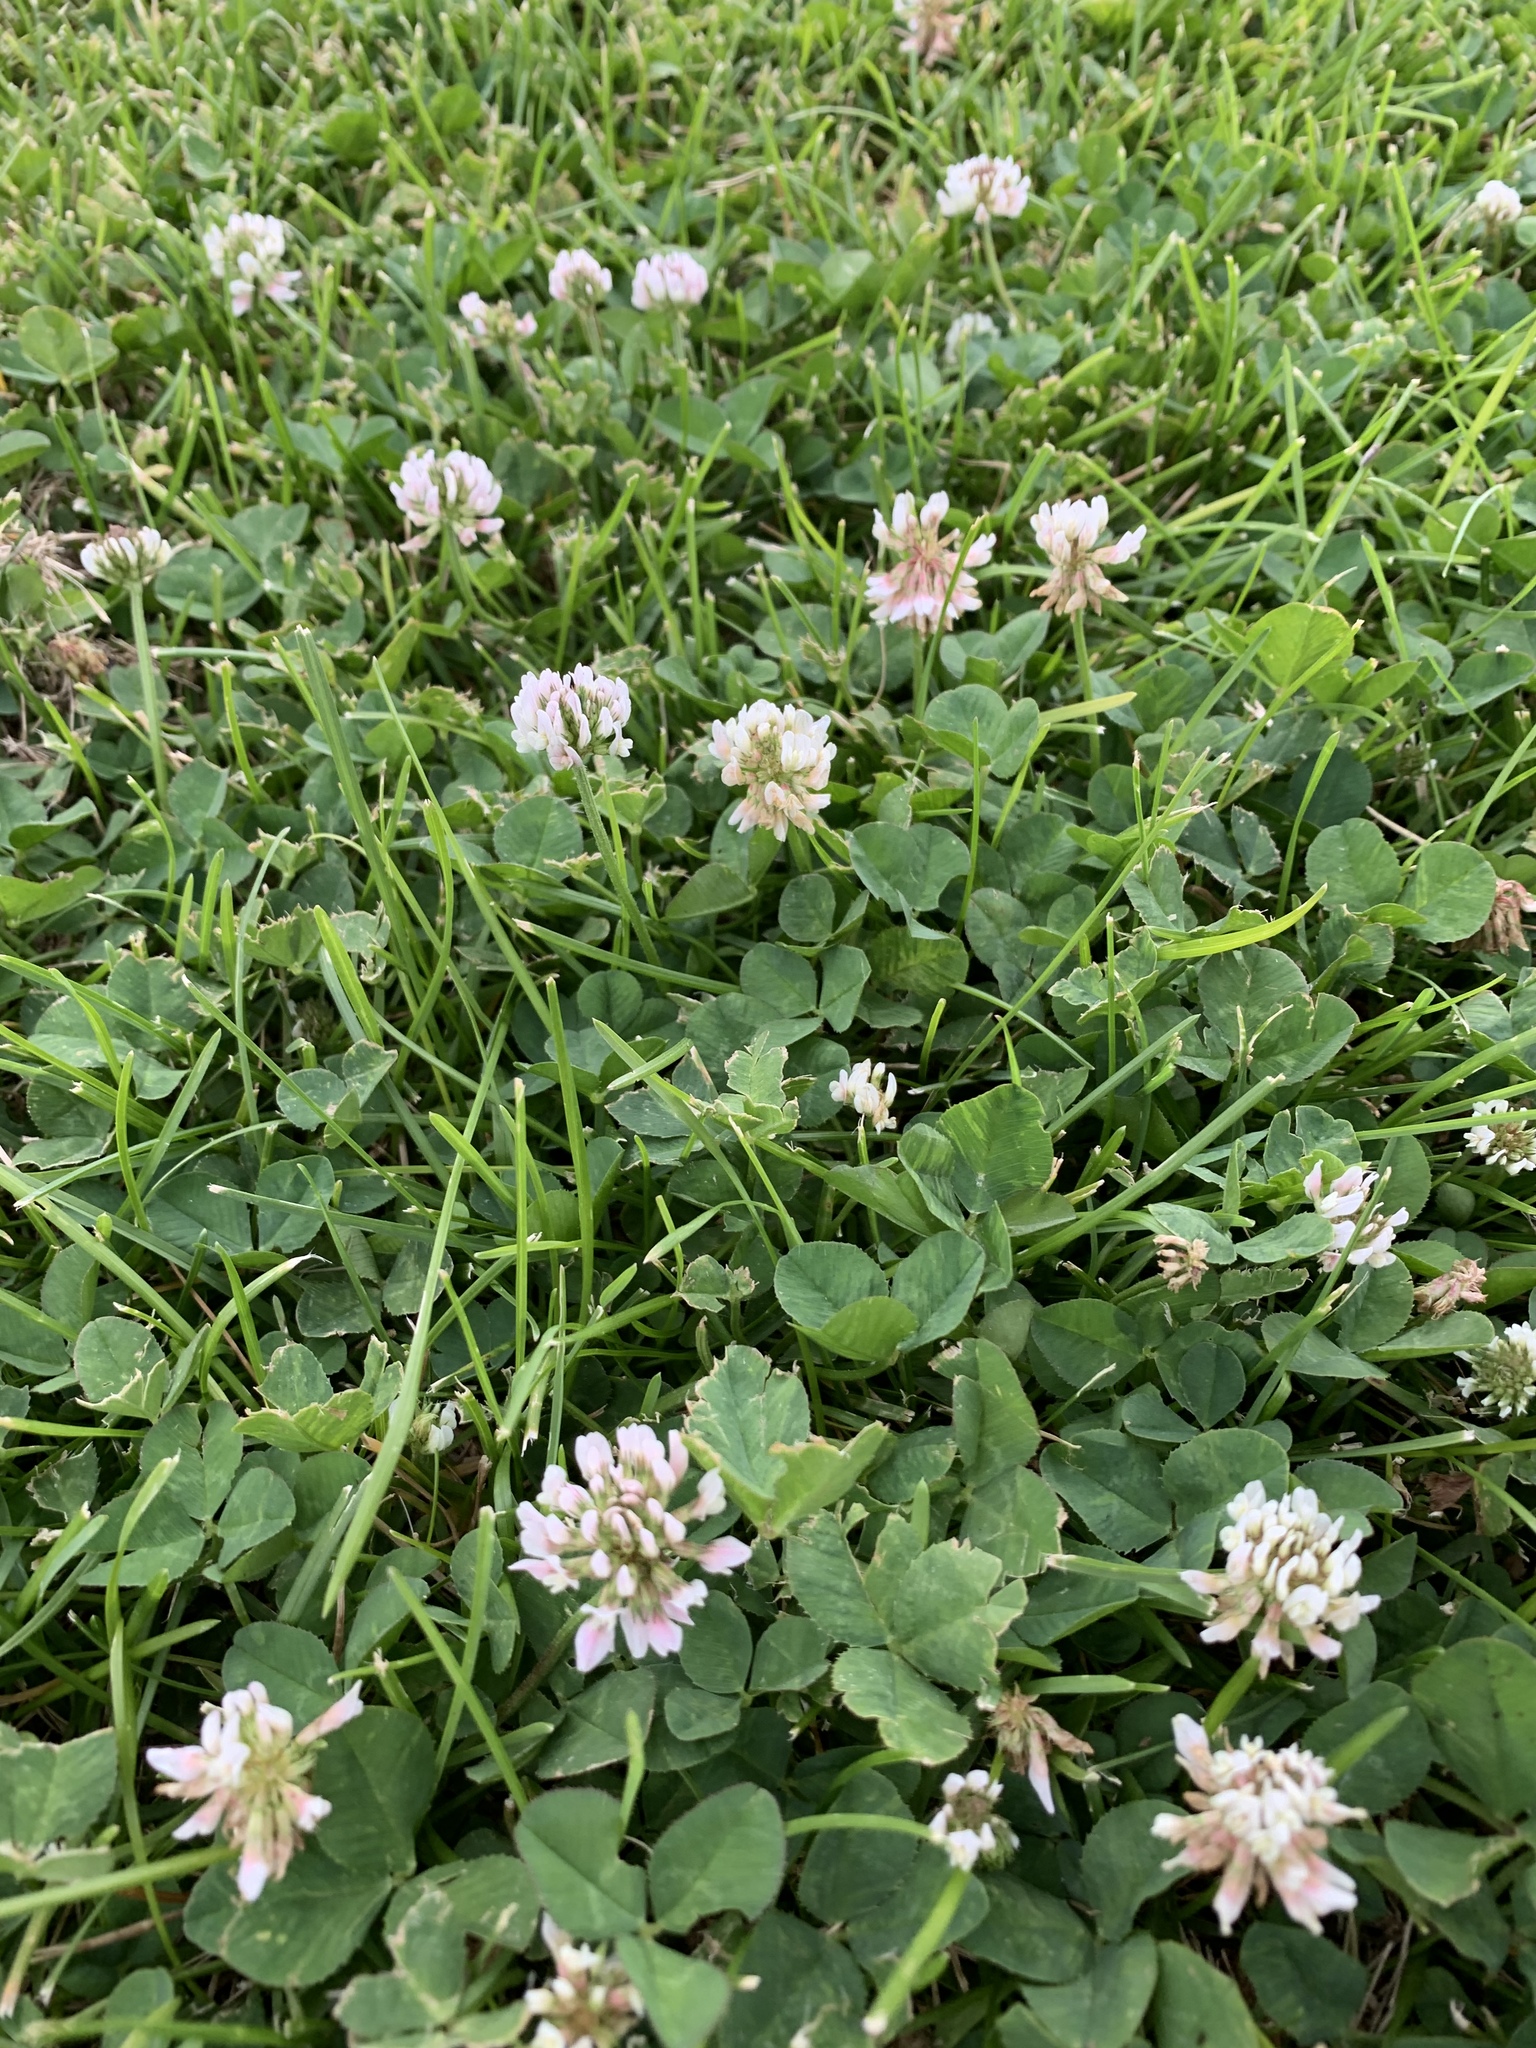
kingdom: Plantae
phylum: Tracheophyta
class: Magnoliopsida
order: Fabales
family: Fabaceae
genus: Trifolium
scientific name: Trifolium repens
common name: White clover
